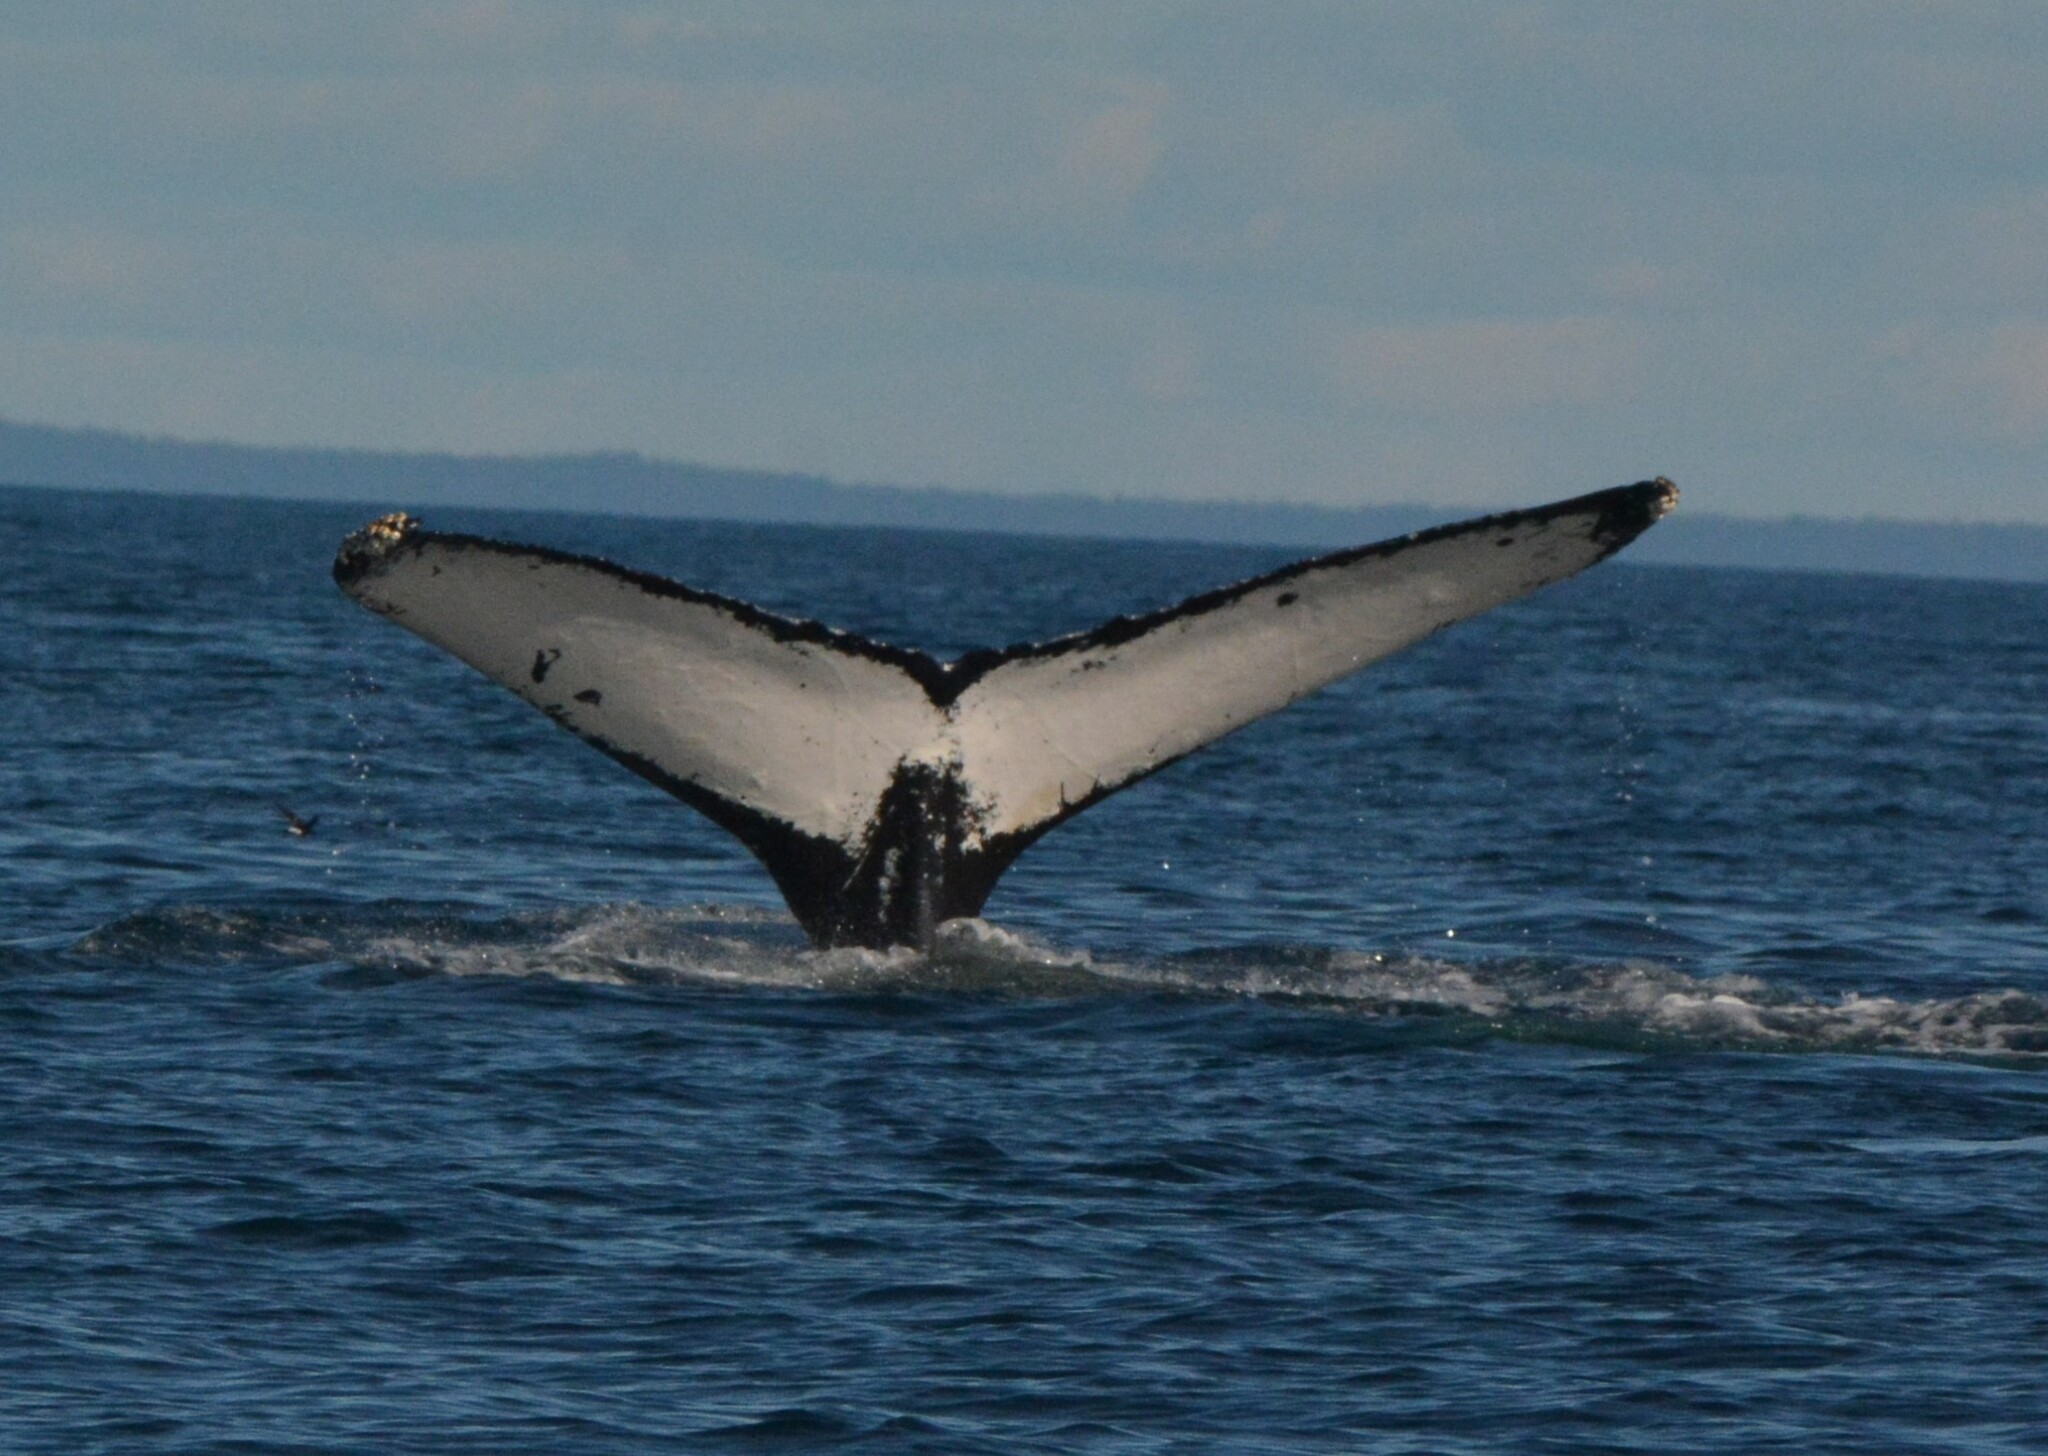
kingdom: Animalia
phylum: Chordata
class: Mammalia
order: Cetacea
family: Balaenopteridae
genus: Megaptera
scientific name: Megaptera novaeangliae
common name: Humpback whale
